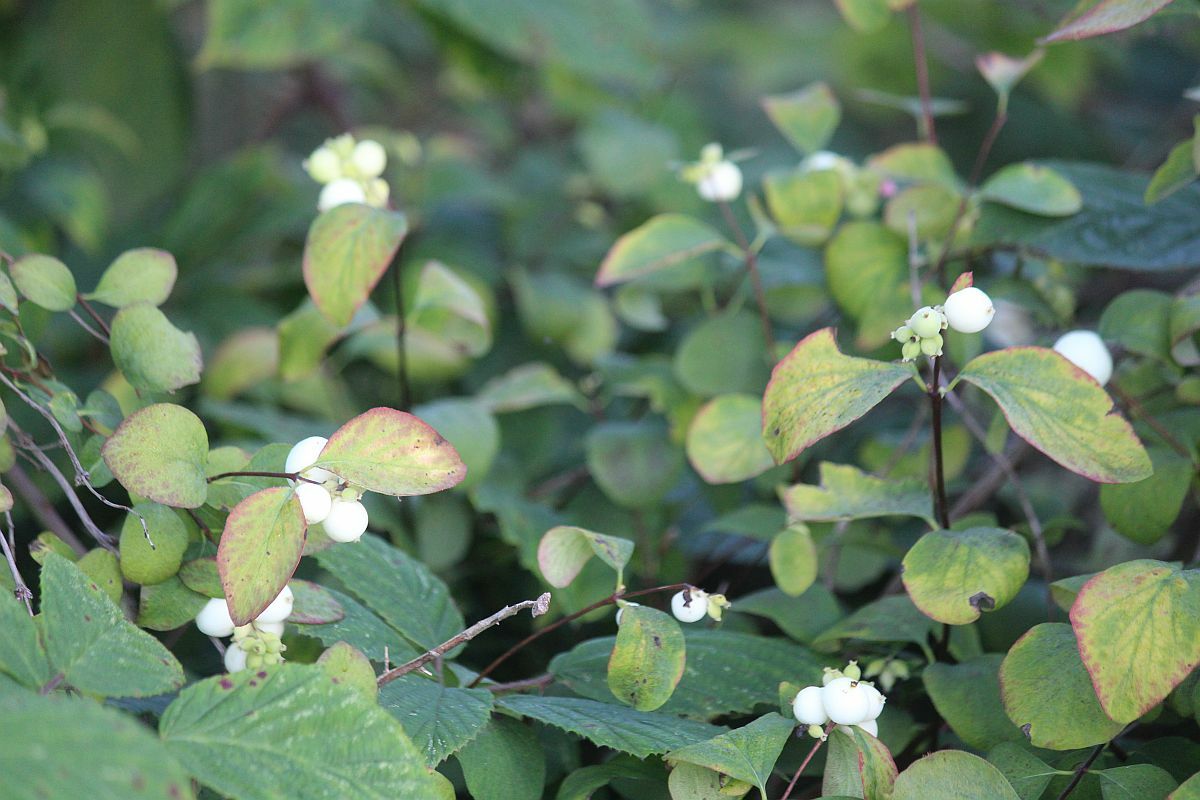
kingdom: Plantae
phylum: Tracheophyta
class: Magnoliopsida
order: Dipsacales
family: Caprifoliaceae
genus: Symphoricarpos
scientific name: Symphoricarpos albus
